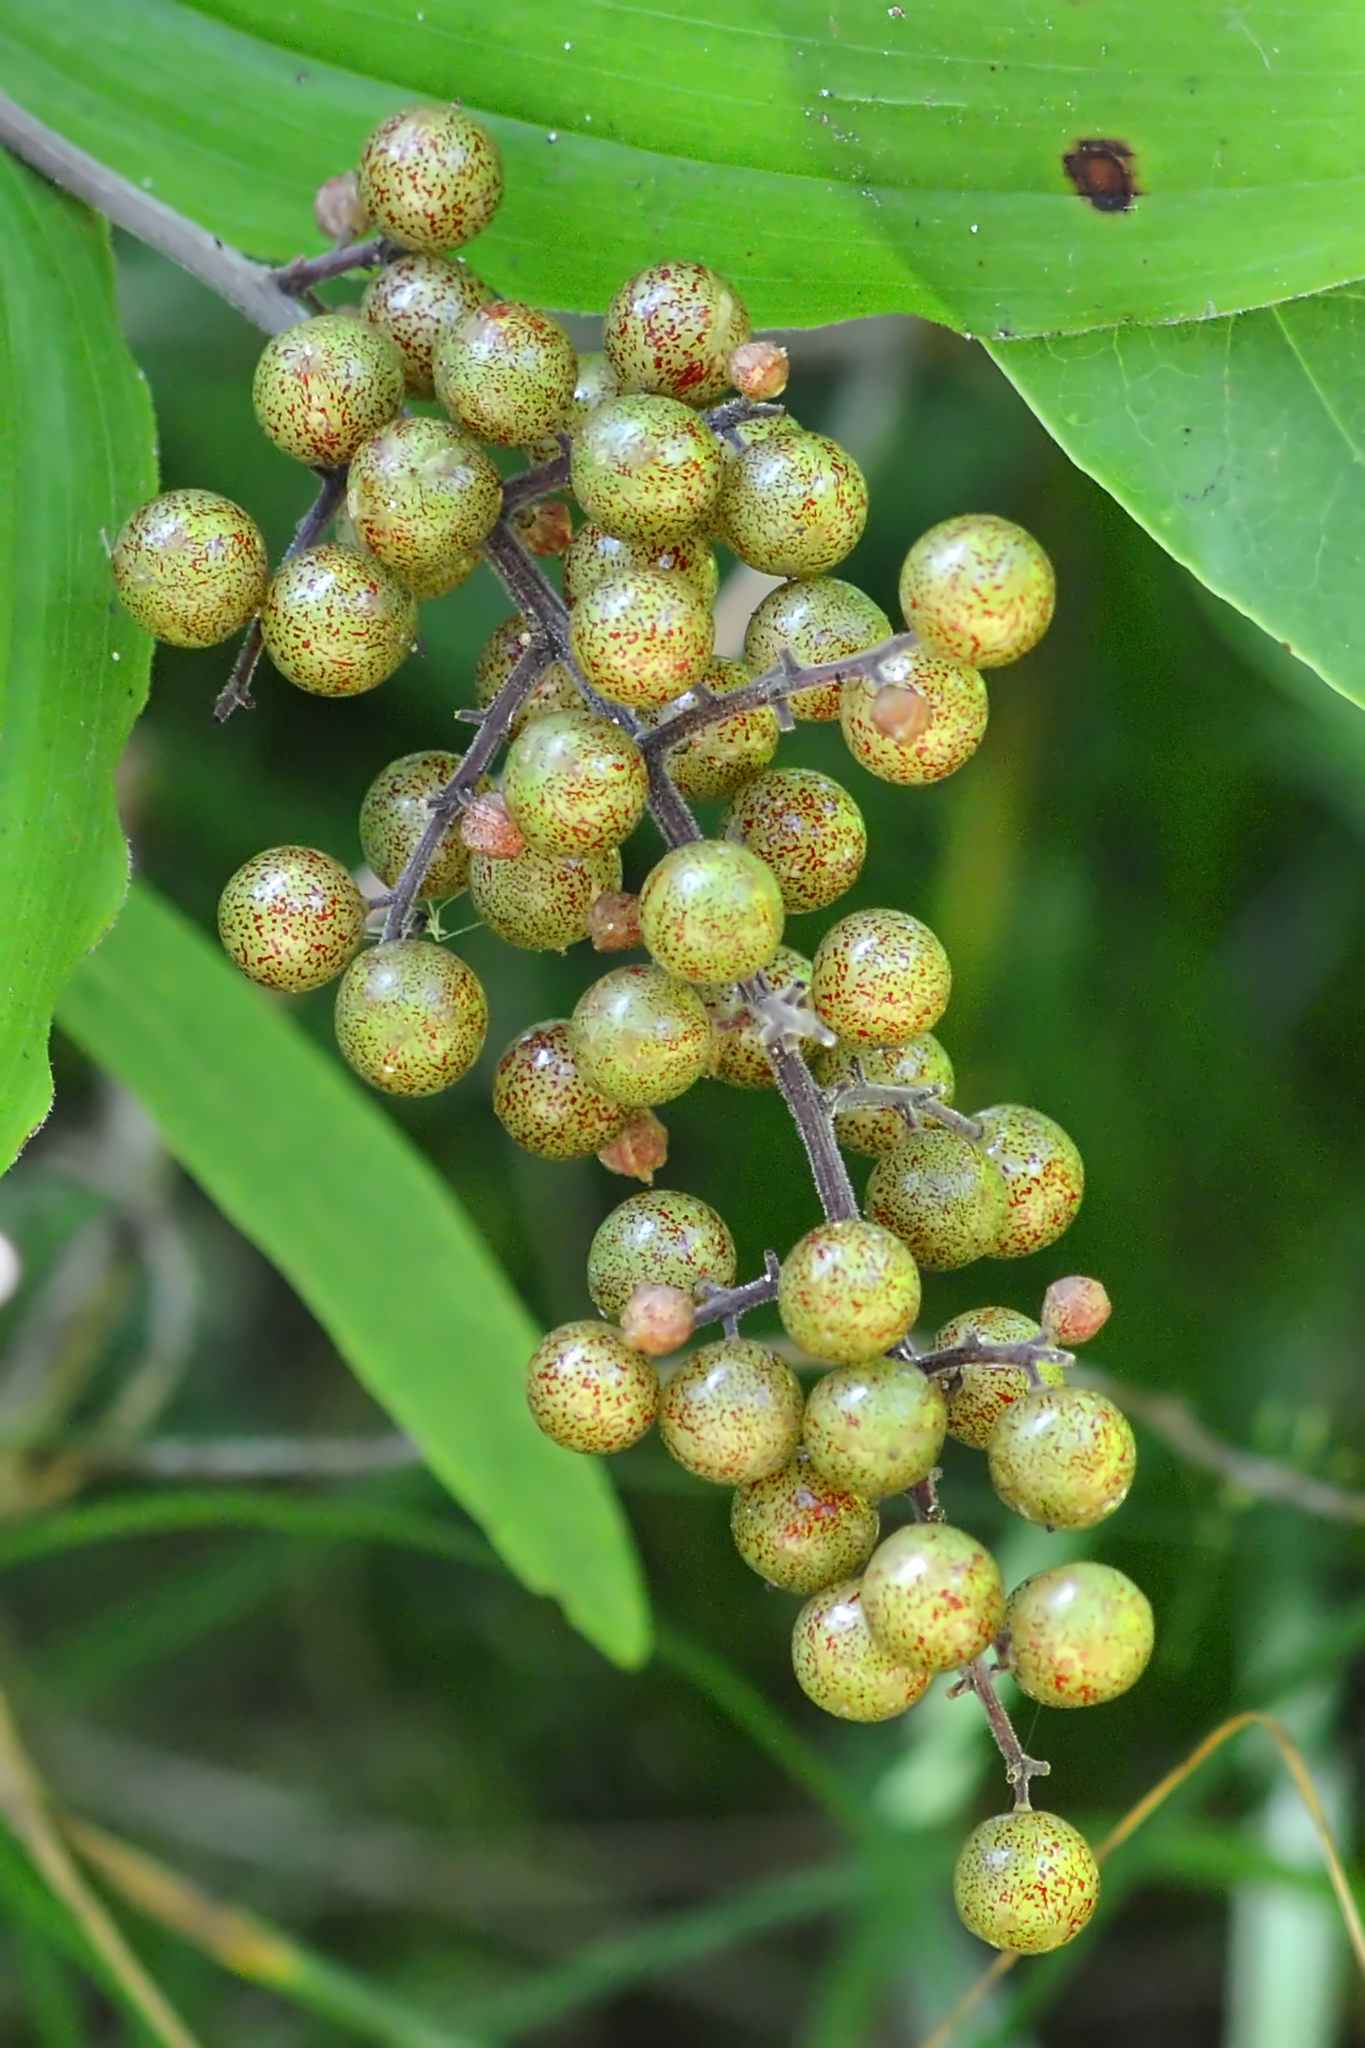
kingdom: Plantae
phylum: Tracheophyta
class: Liliopsida
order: Asparagales
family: Asparagaceae
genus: Maianthemum
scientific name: Maianthemum racemosum
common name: False spikenard
